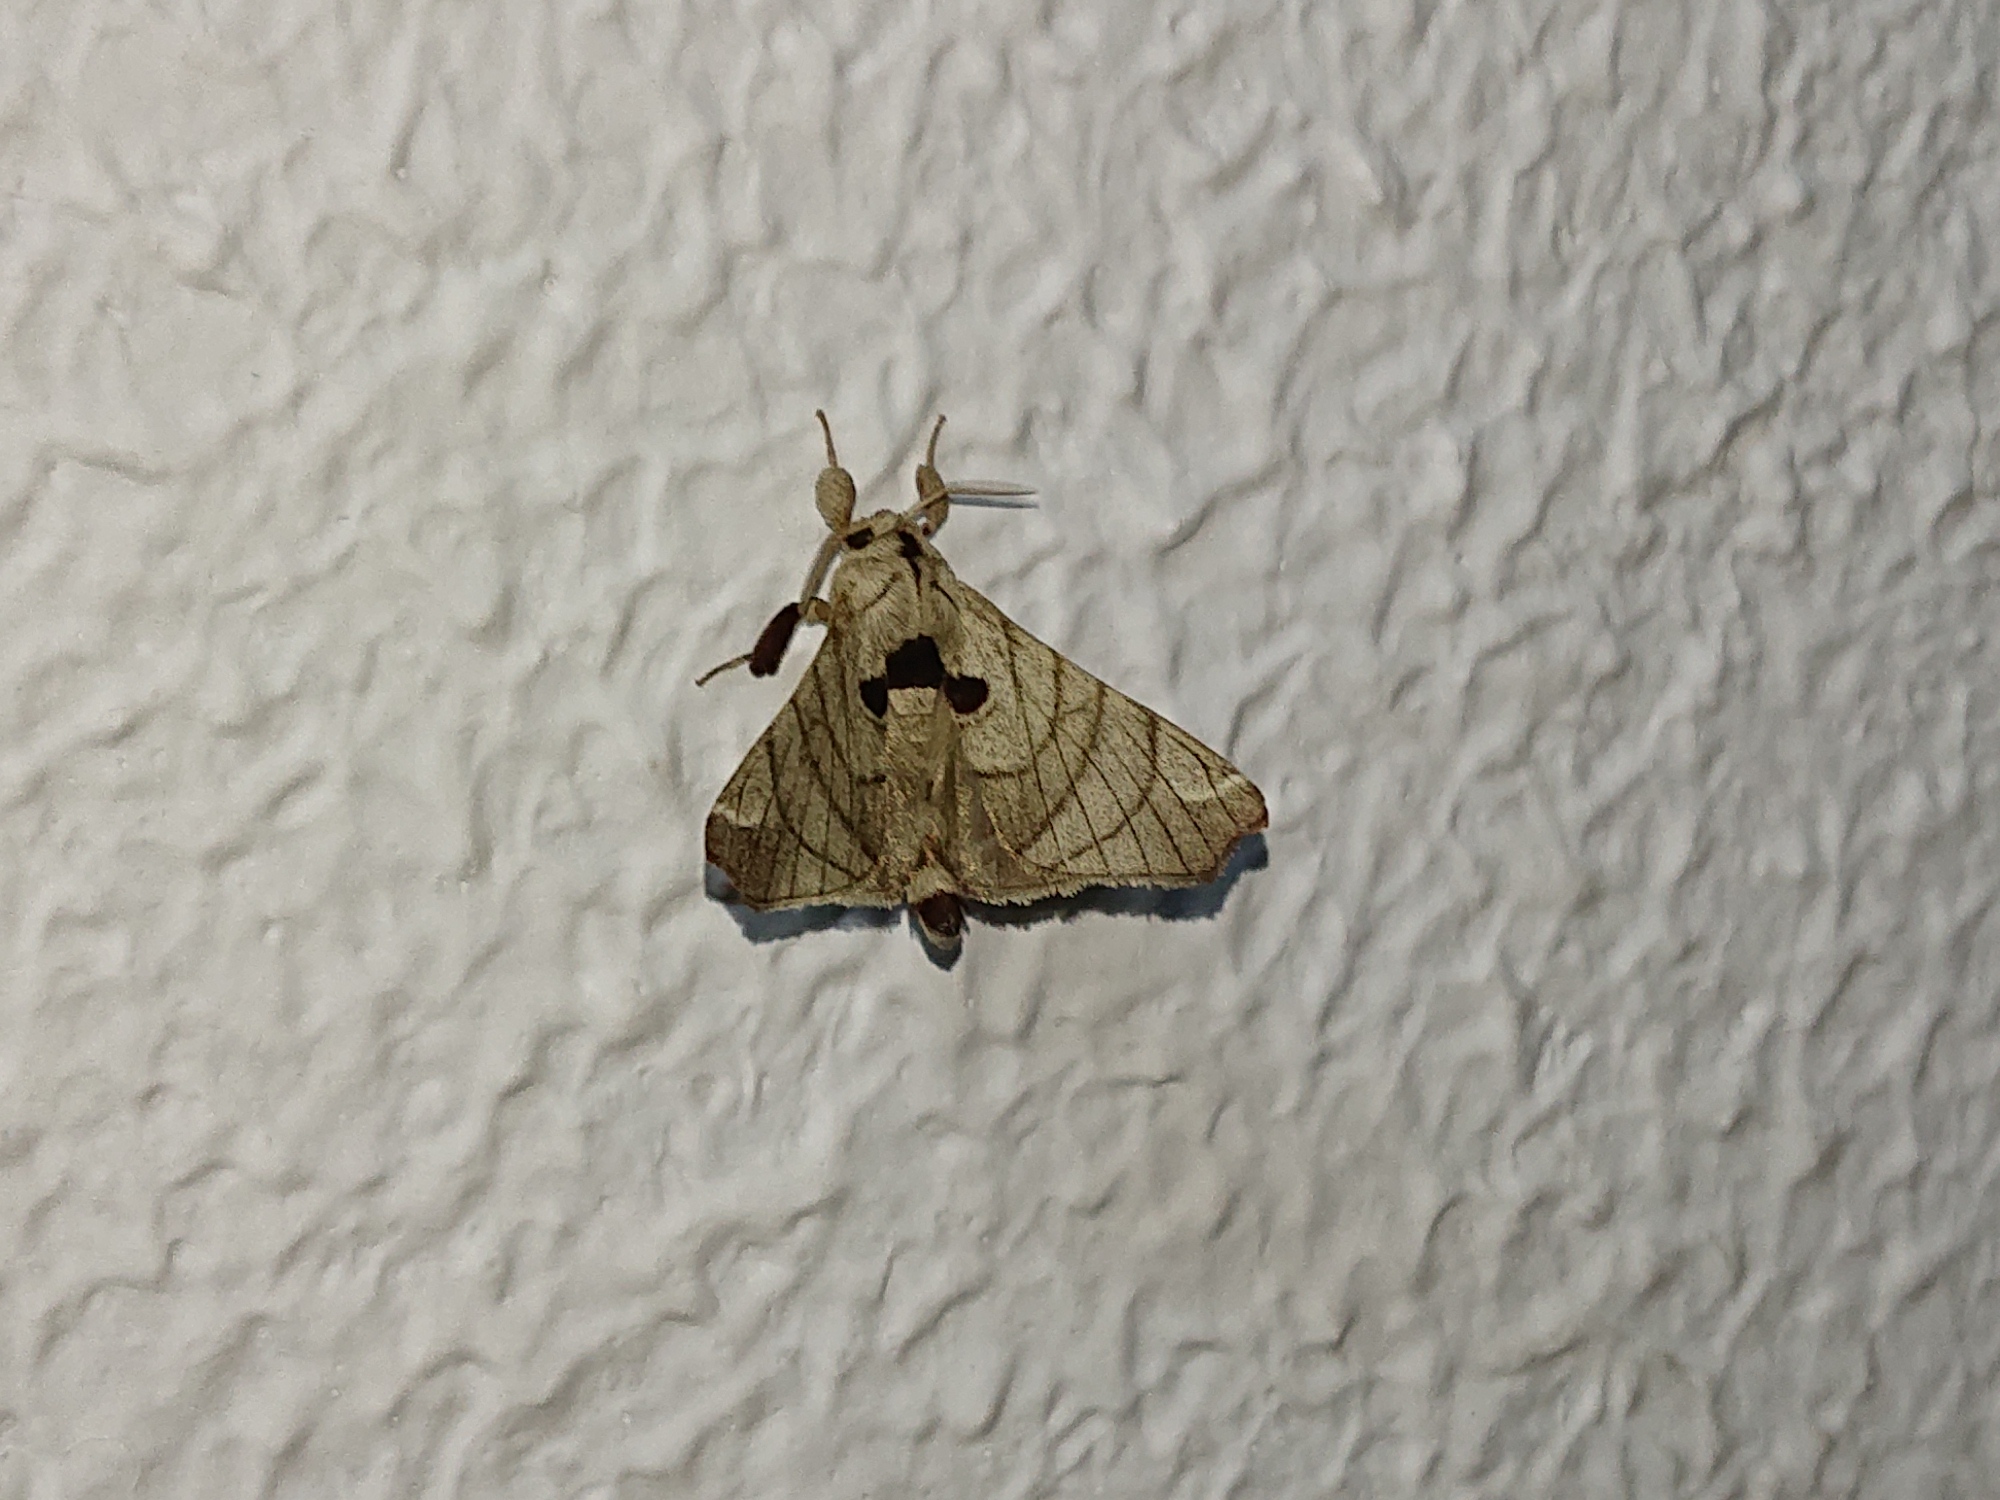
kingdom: Animalia
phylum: Arthropoda
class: Insecta
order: Lepidoptera
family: Apatelodidae
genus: Hygrochroa
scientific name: Hygrochroa firmiana
